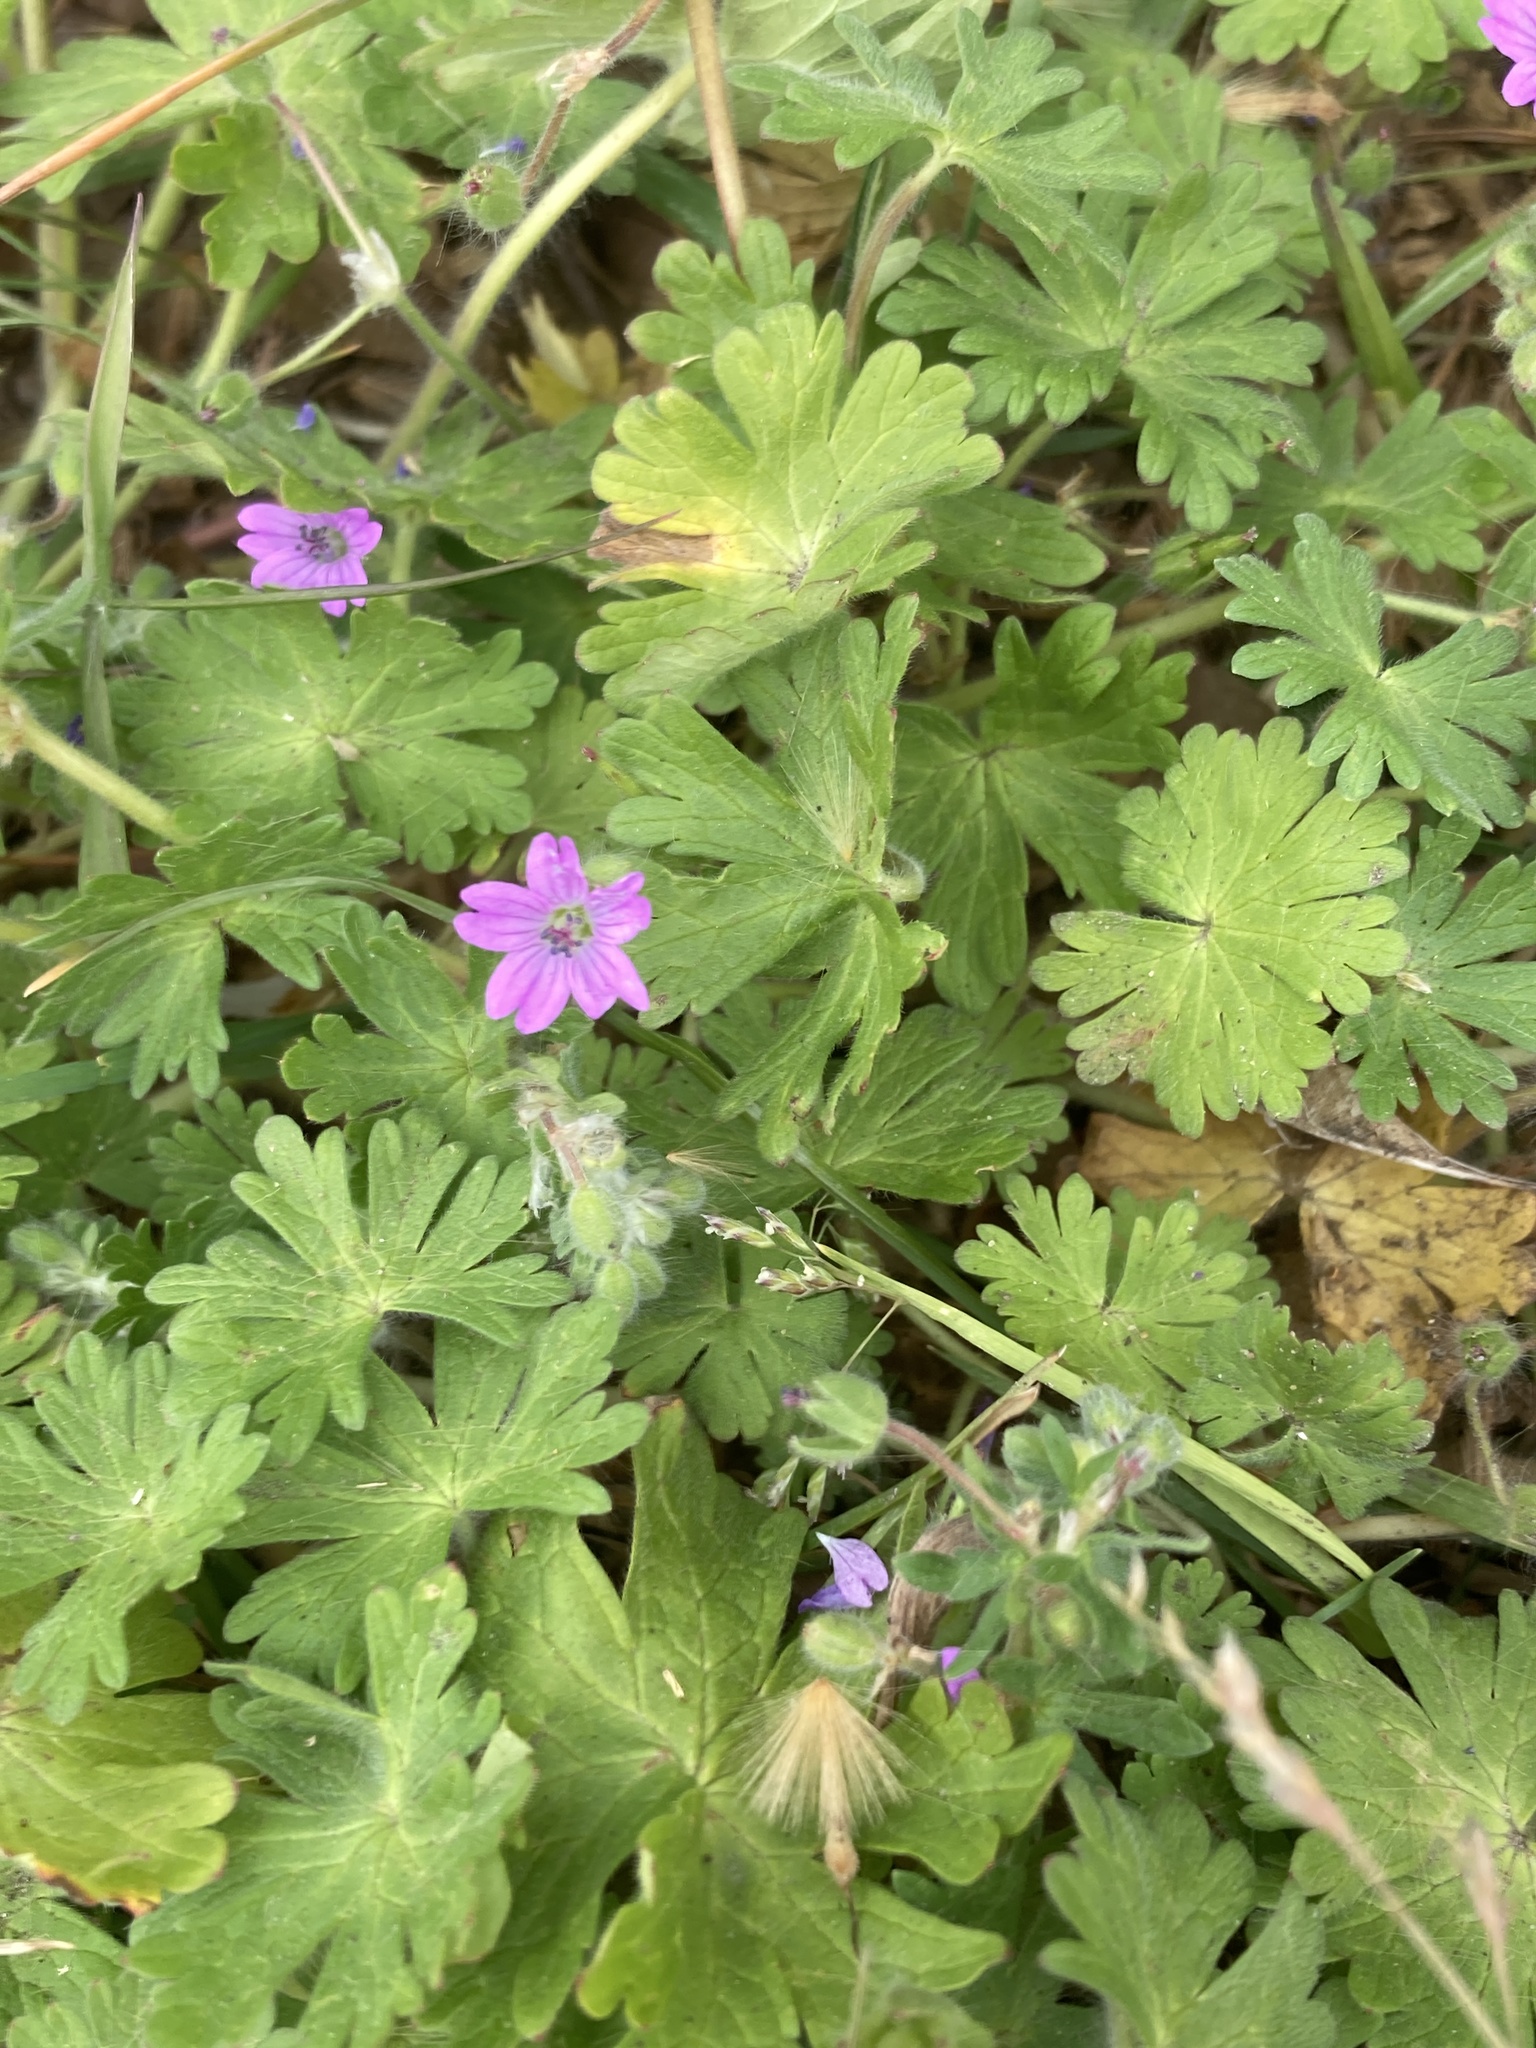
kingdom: Plantae
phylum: Tracheophyta
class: Magnoliopsida
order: Geraniales
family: Geraniaceae
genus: Geranium
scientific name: Geranium molle
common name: Dove's-foot crane's-bill
